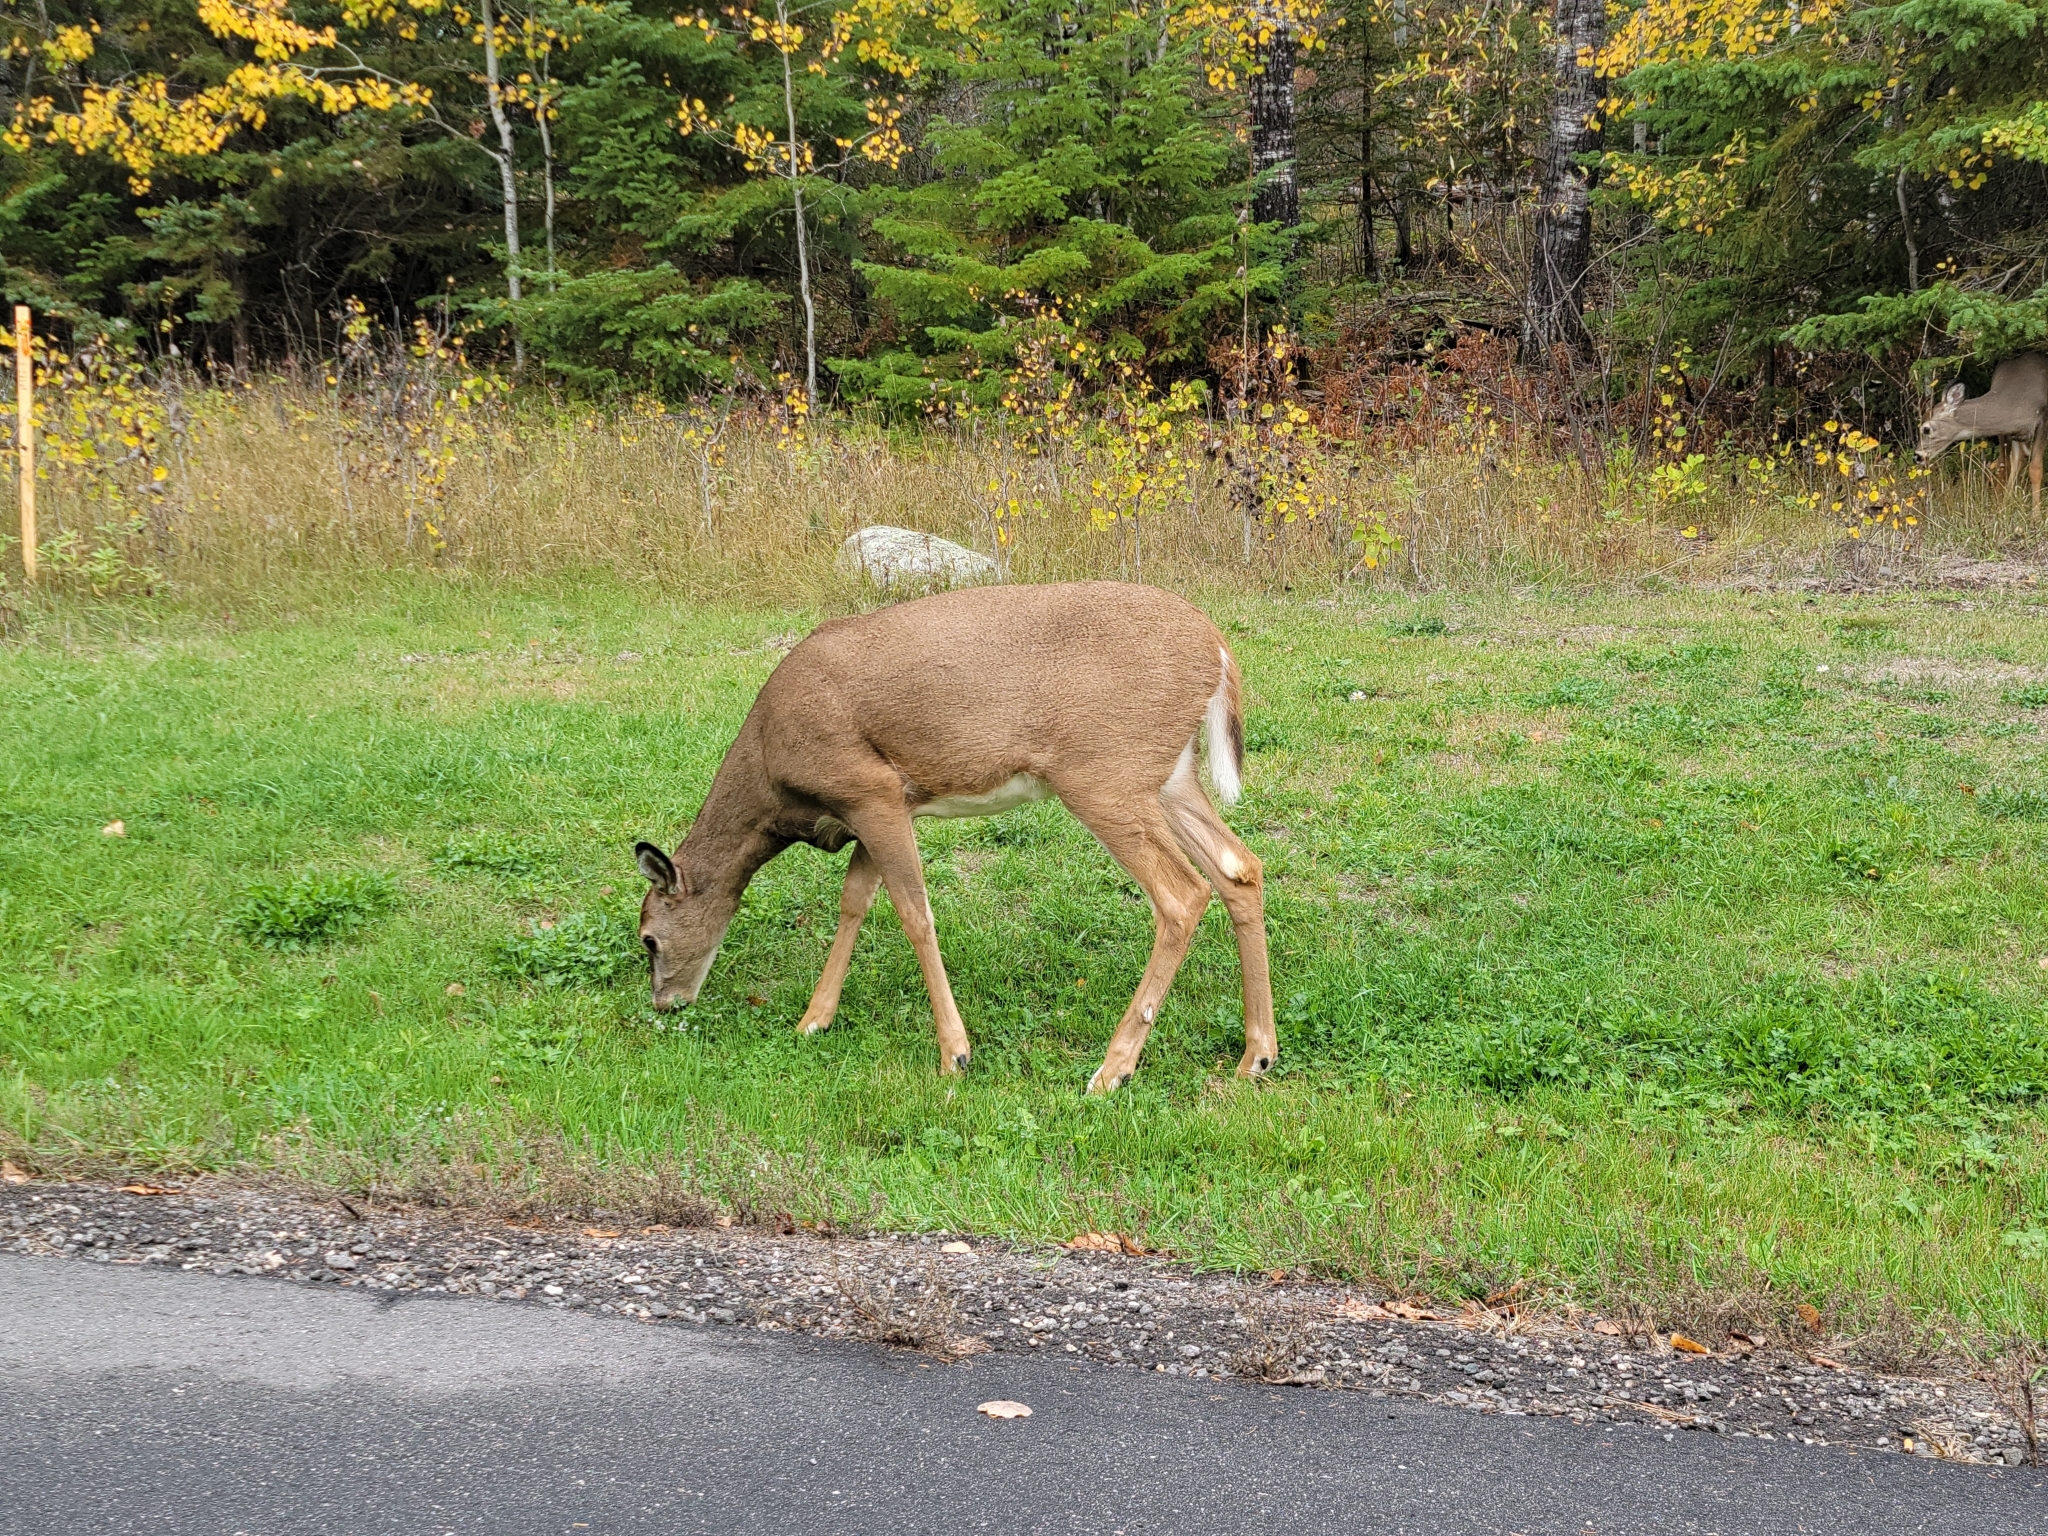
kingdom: Animalia
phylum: Chordata
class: Mammalia
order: Artiodactyla
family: Cervidae
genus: Odocoileus
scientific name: Odocoileus virginianus
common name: White-tailed deer
